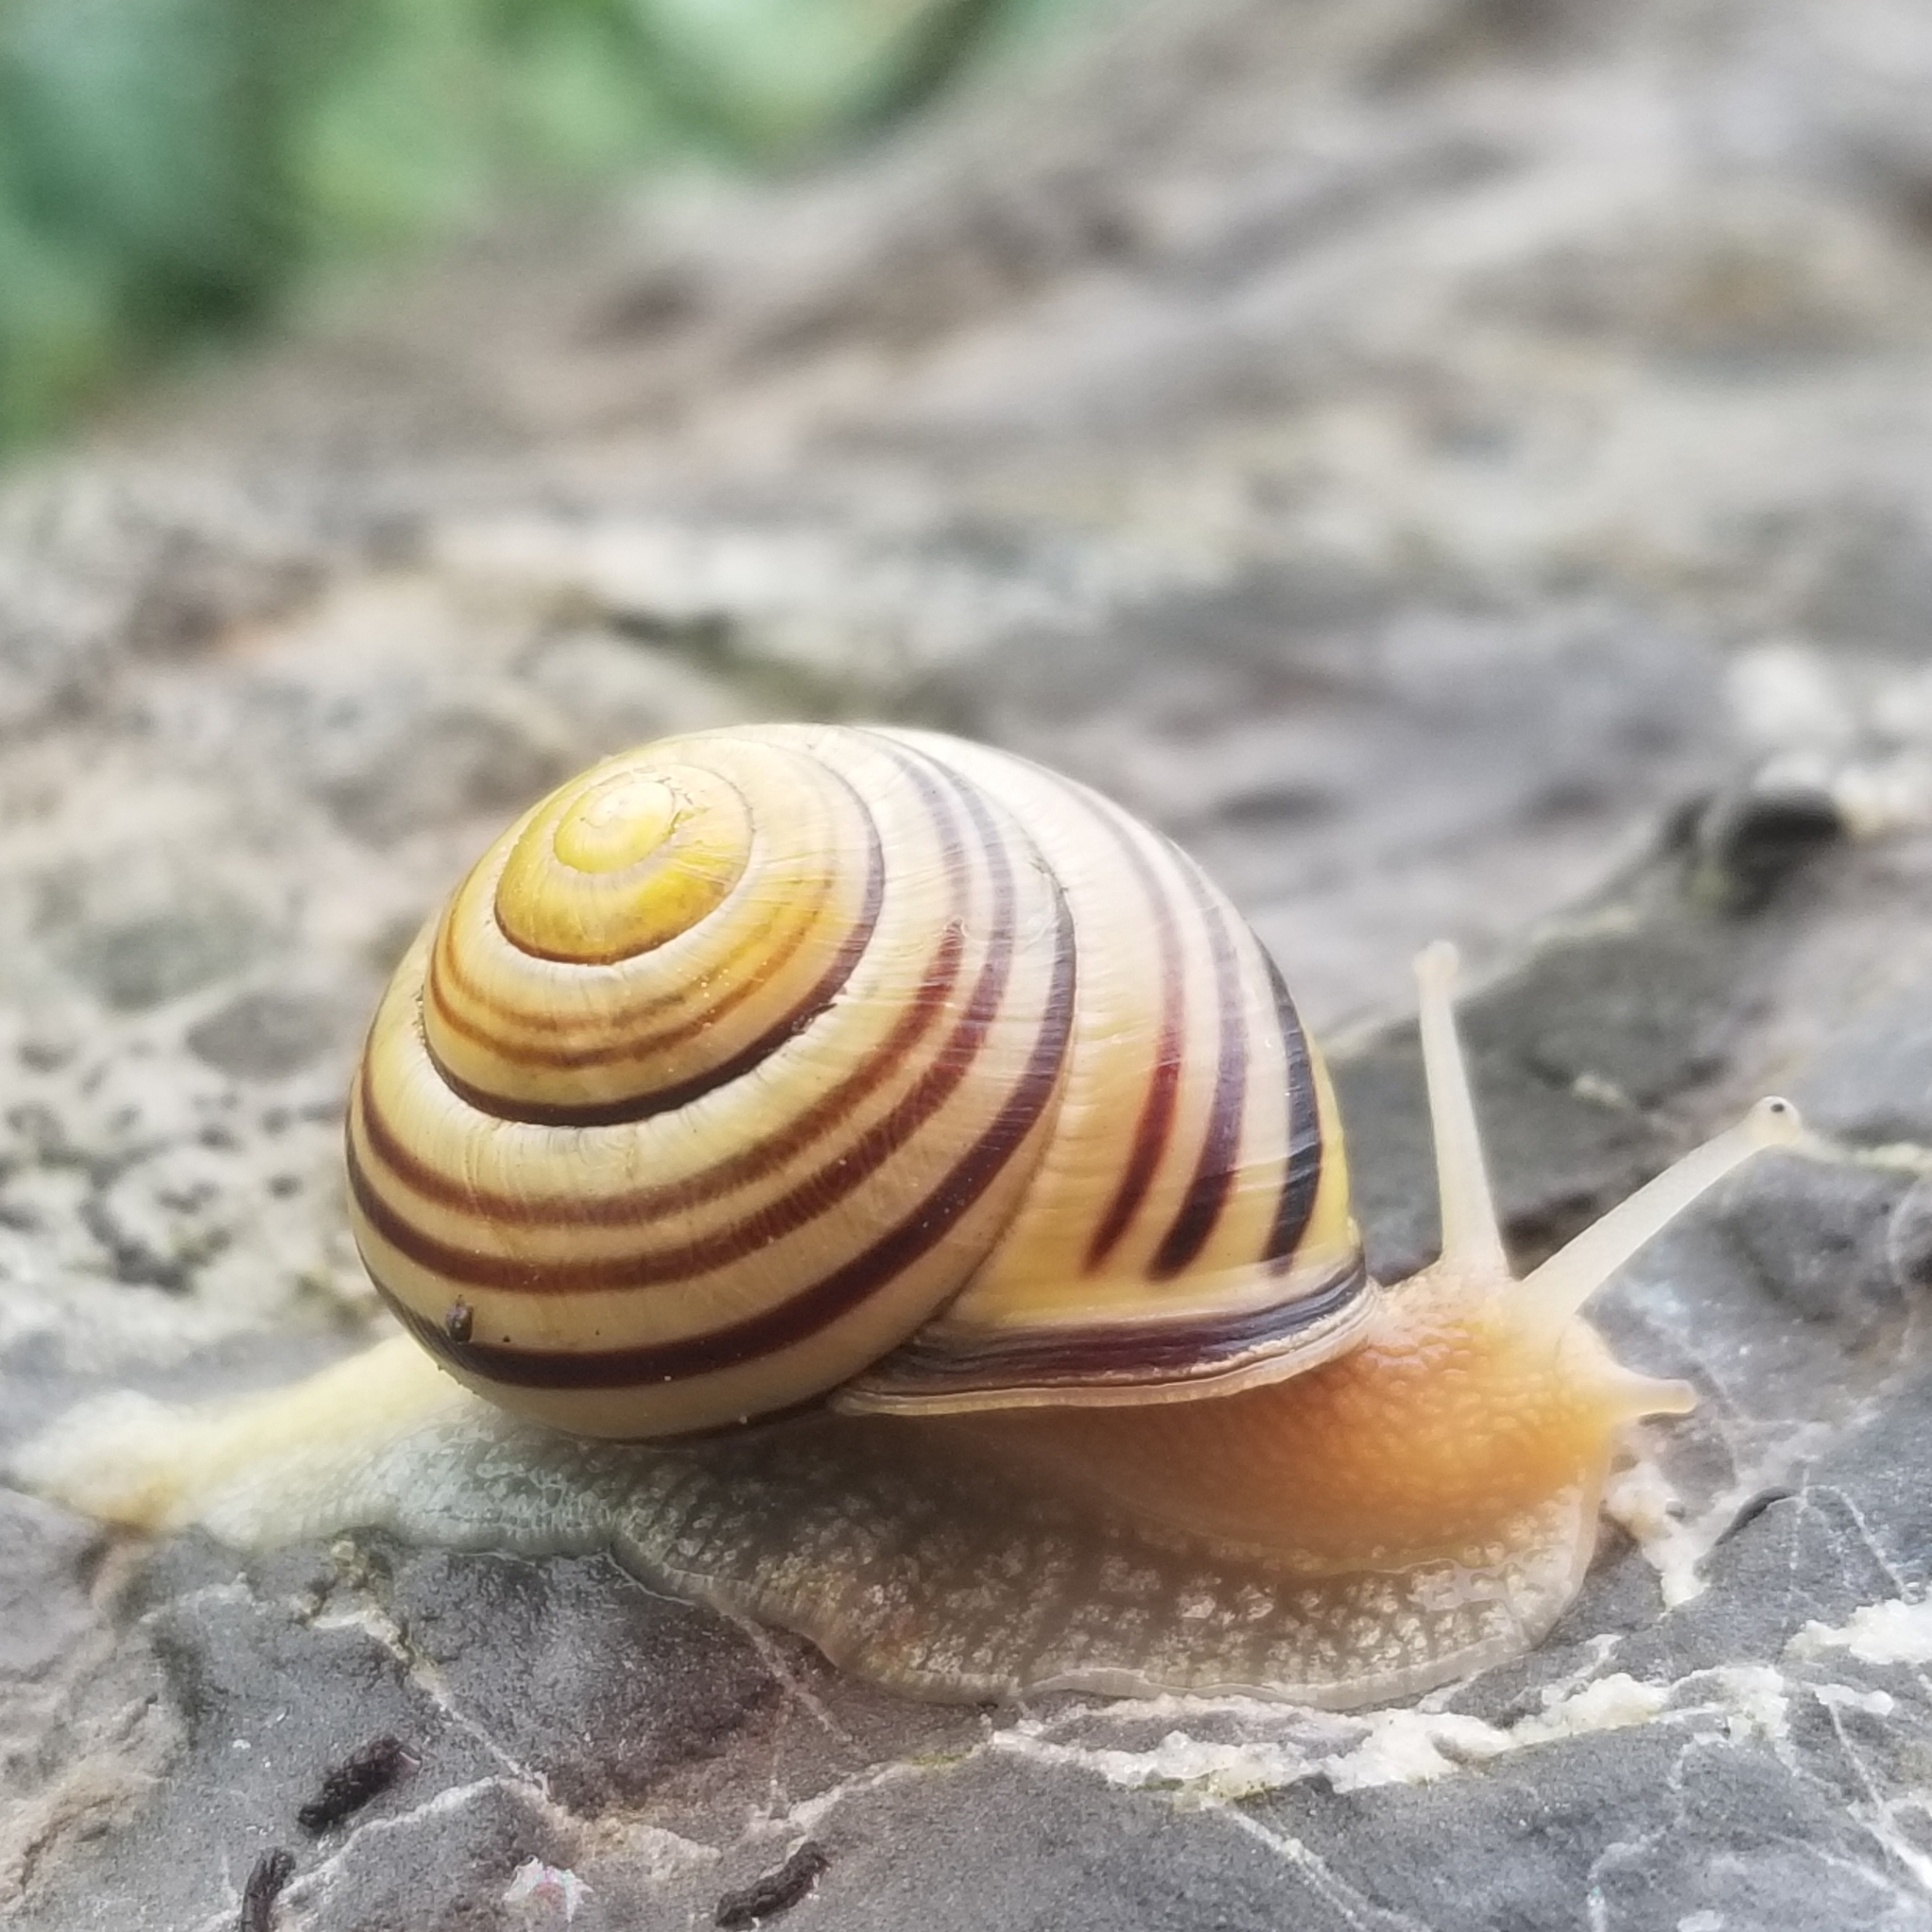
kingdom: Animalia
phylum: Mollusca
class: Gastropoda
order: Stylommatophora
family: Helicidae
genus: Cepaea
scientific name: Cepaea nemoralis
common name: Grovesnail
